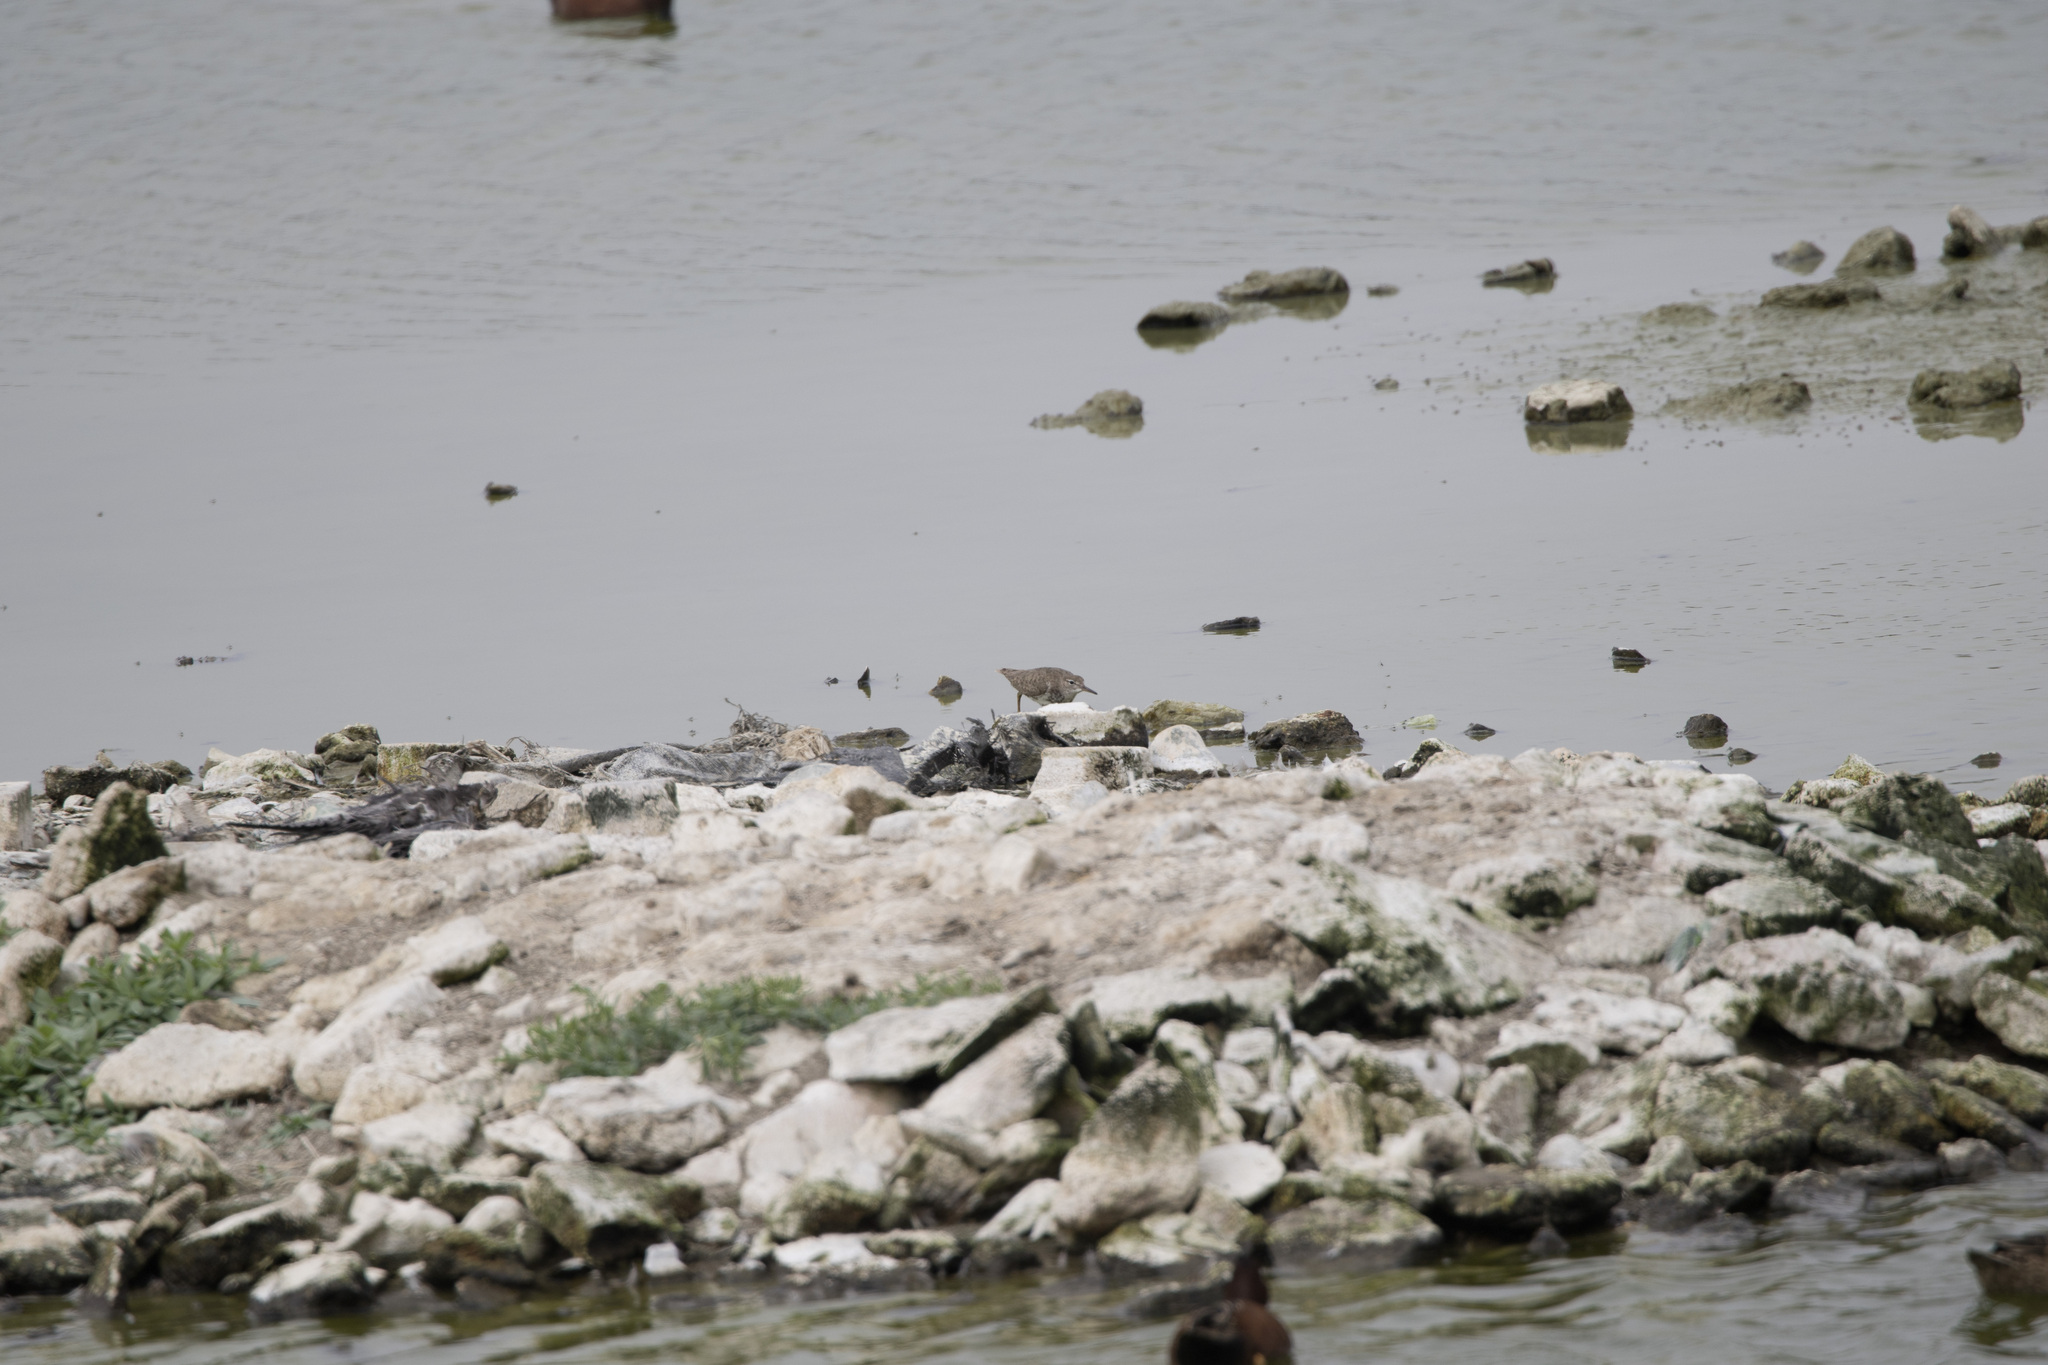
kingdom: Animalia
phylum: Chordata
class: Aves
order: Charadriiformes
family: Scolopacidae
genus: Actitis
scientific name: Actitis macularius
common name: Spotted sandpiper
